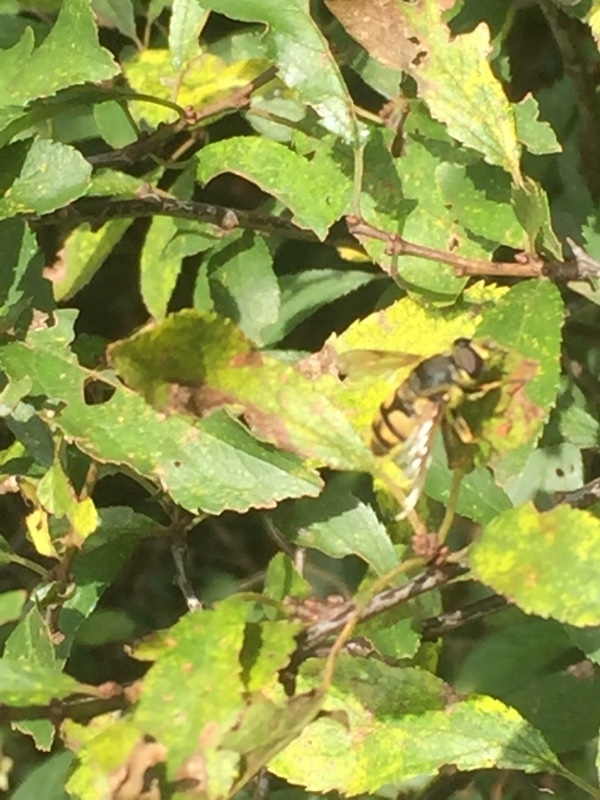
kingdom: Animalia
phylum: Arthropoda
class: Insecta
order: Diptera
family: Syrphidae
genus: Myathropa
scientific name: Myathropa florea
